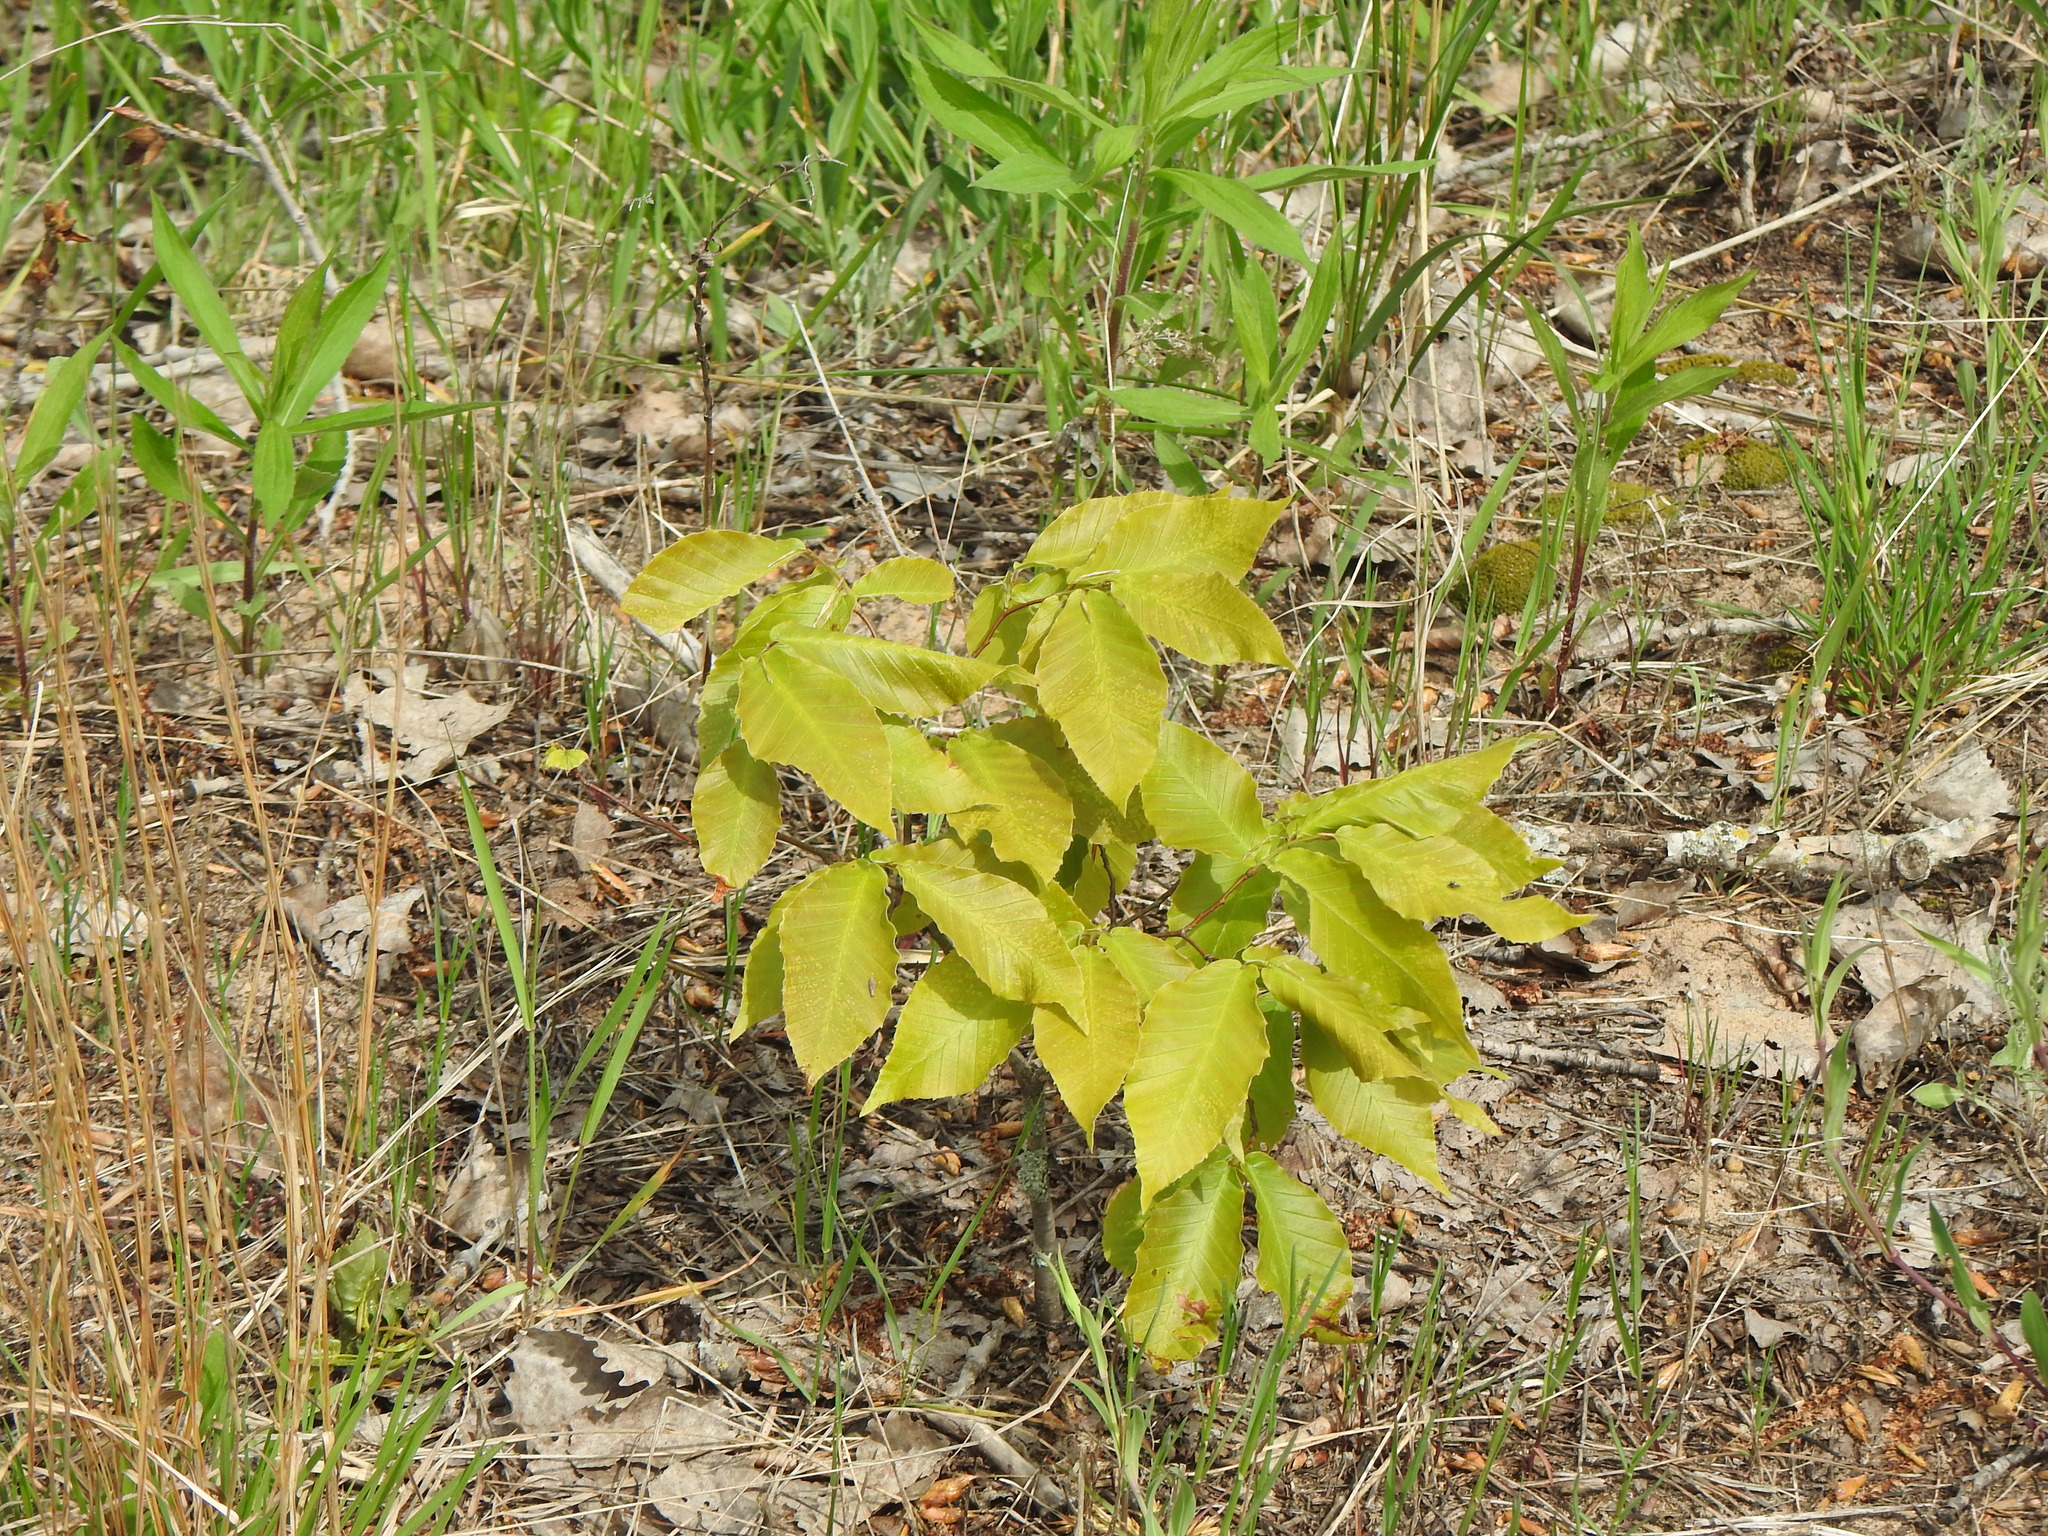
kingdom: Plantae
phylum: Tracheophyta
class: Magnoliopsida
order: Fagales
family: Fagaceae
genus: Fagus
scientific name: Fagus grandifolia
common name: American beech
